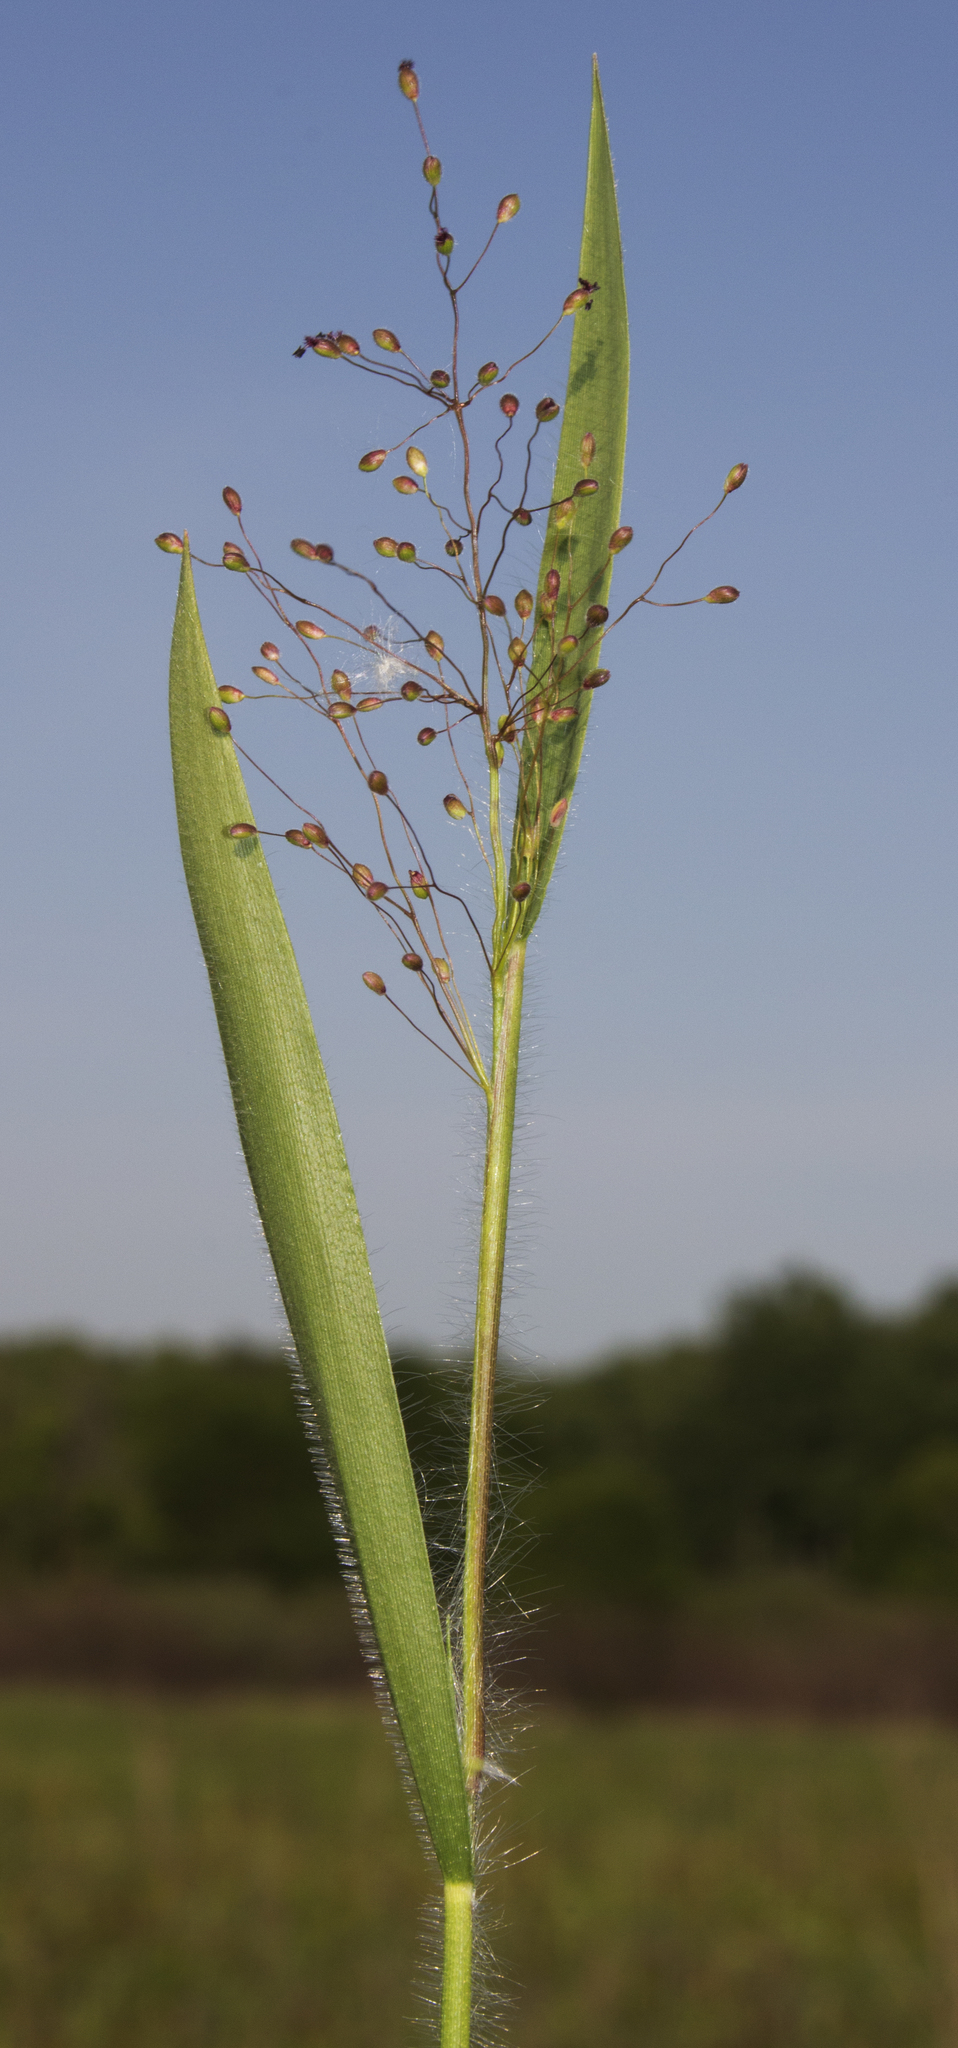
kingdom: Plantae
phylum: Tracheophyta
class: Liliopsida
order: Poales
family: Poaceae
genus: Dichanthelium
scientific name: Dichanthelium lanuginosum
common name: Woolly panicgrass
